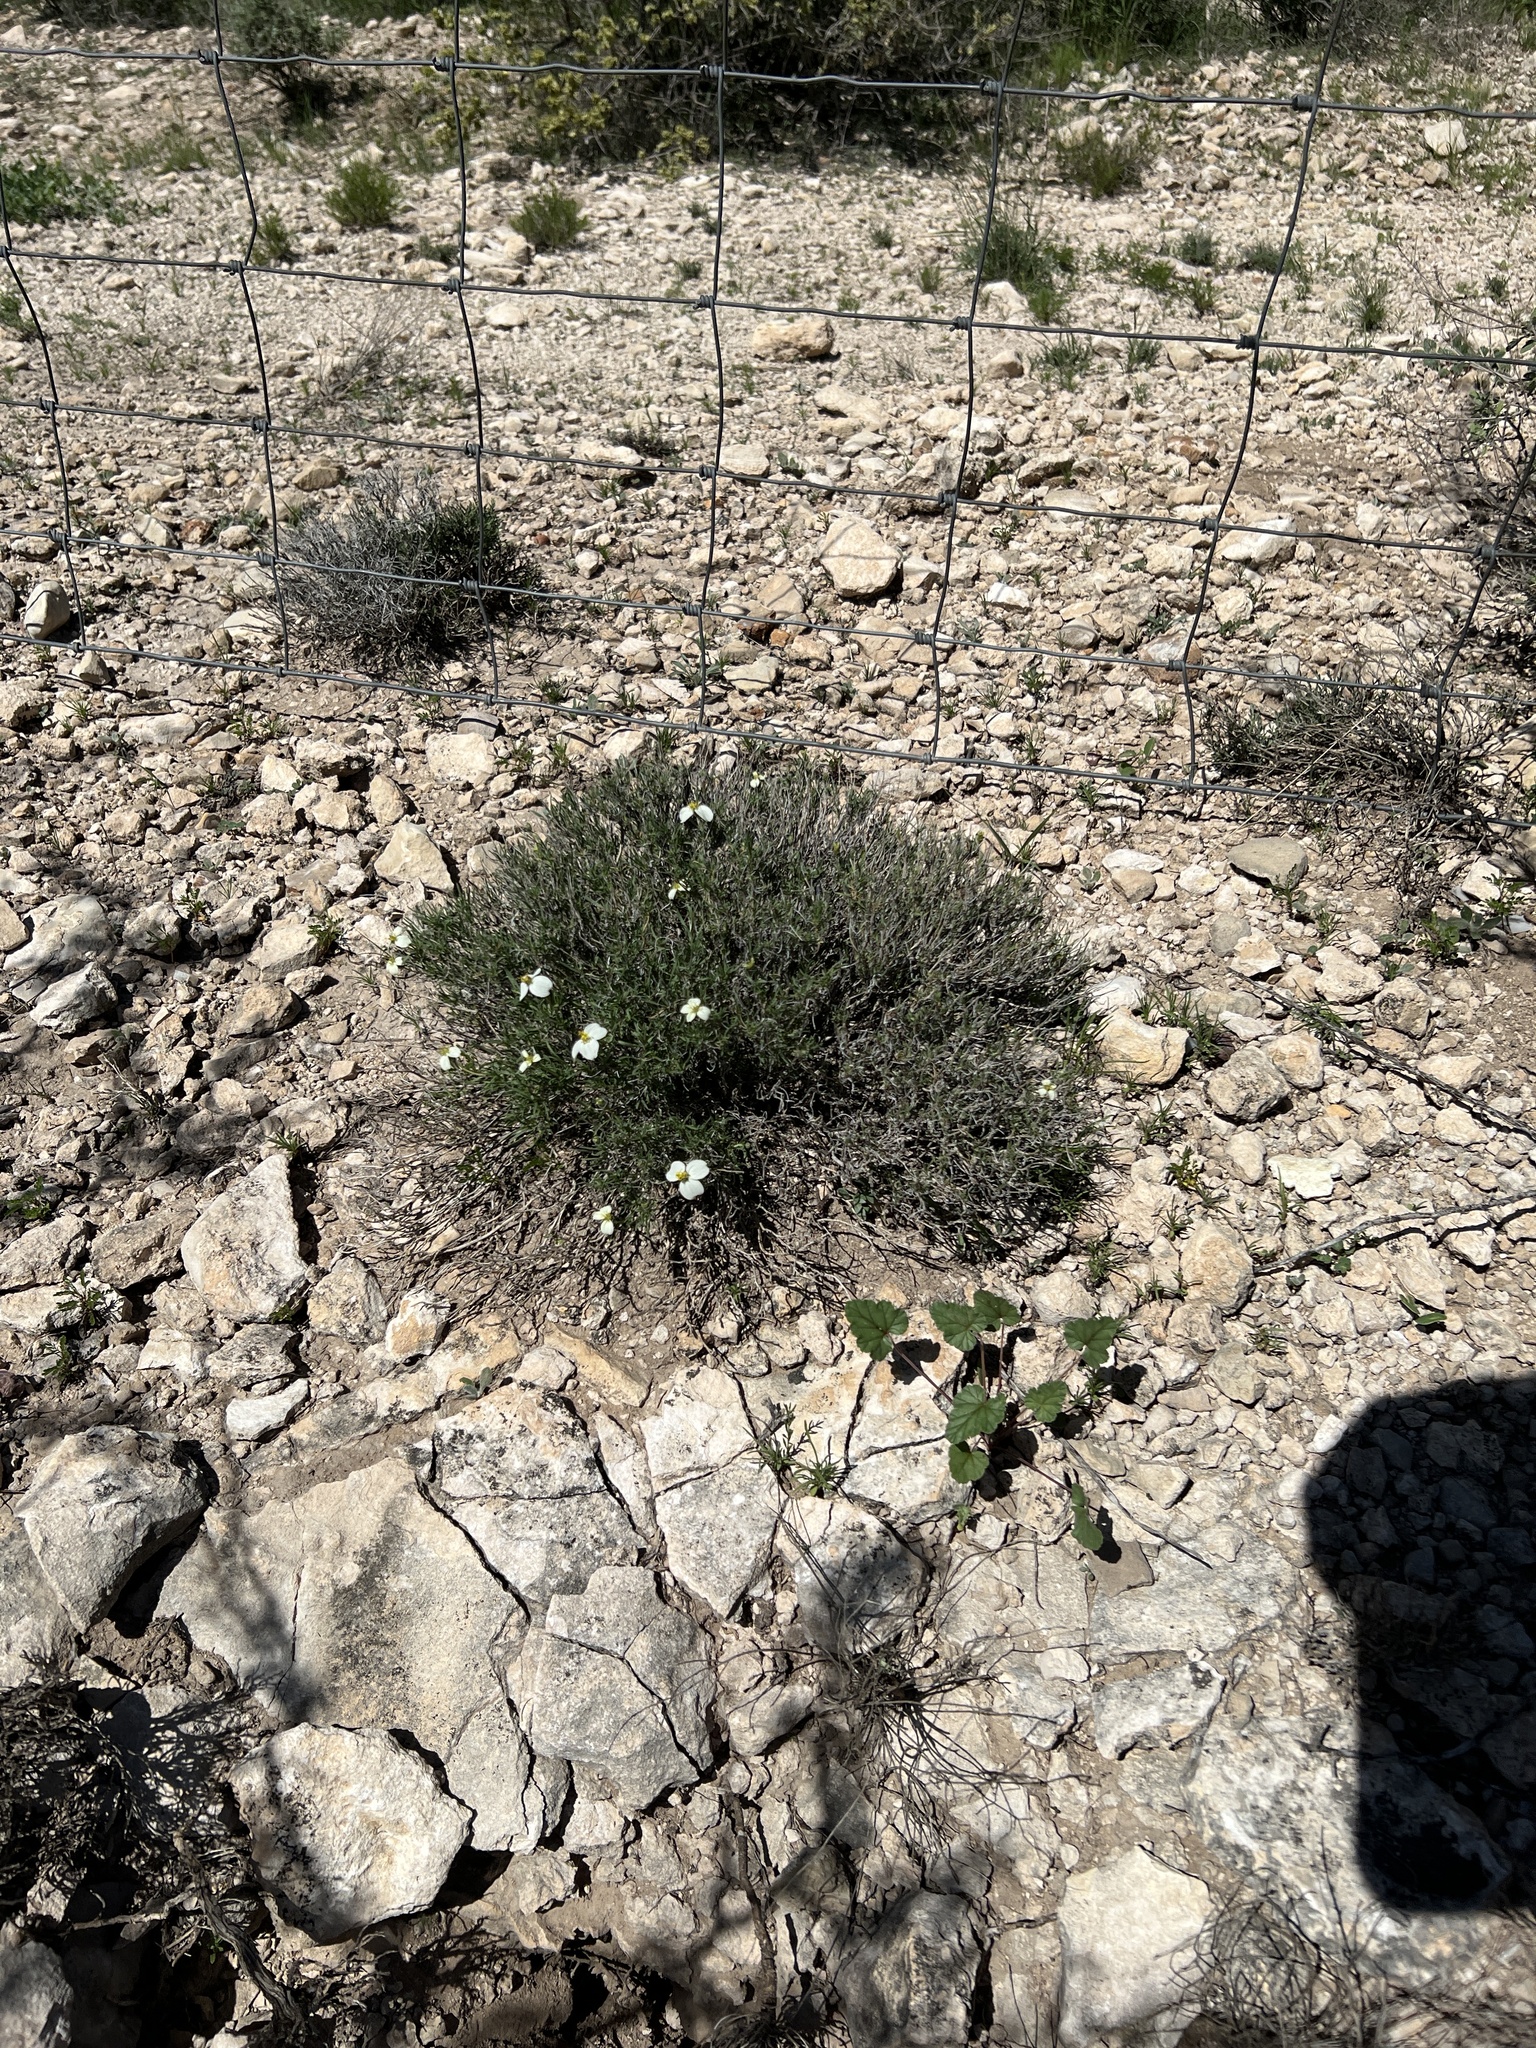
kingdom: Plantae
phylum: Tracheophyta
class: Magnoliopsida
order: Asterales
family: Asteraceae
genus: Zinnia
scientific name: Zinnia acerosa
